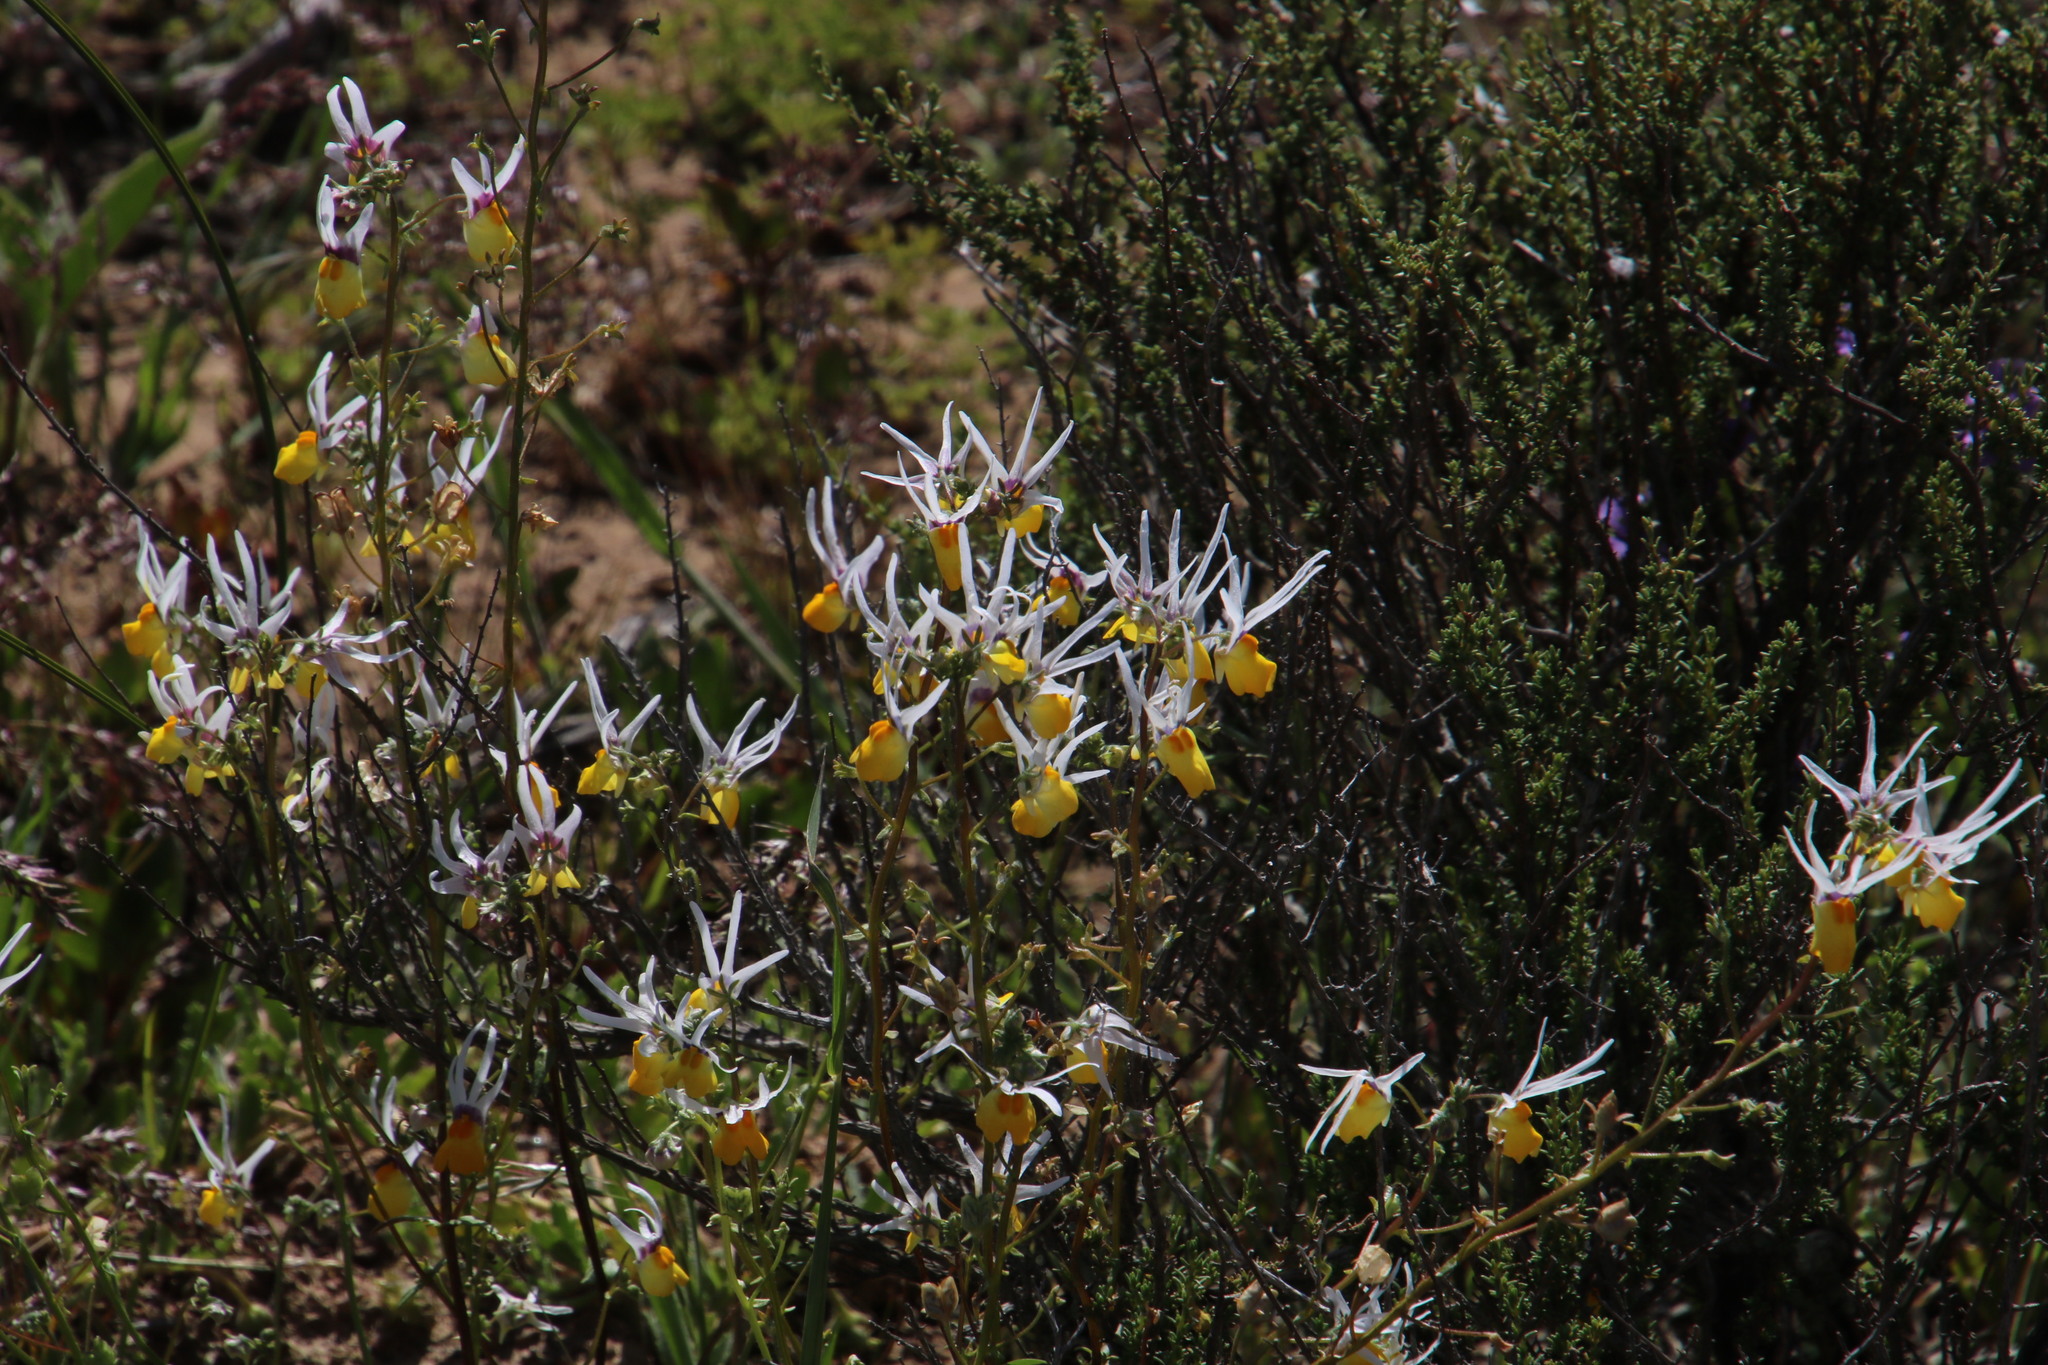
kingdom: Plantae
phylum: Tracheophyta
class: Magnoliopsida
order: Lamiales
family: Scrophulariaceae
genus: Nemesia
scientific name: Nemesia cheiranthus
